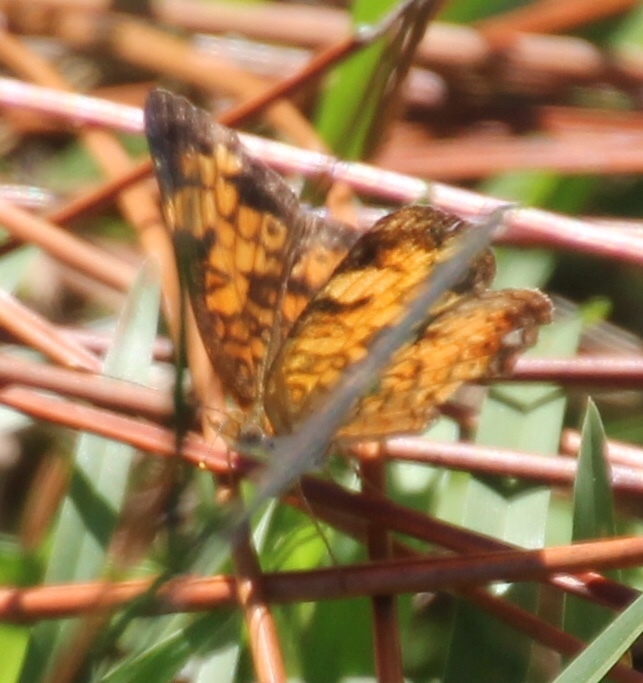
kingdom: Animalia
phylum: Arthropoda
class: Insecta
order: Lepidoptera
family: Nymphalidae
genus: Phyciodes
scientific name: Phyciodes tharos
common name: Pearl crescent
